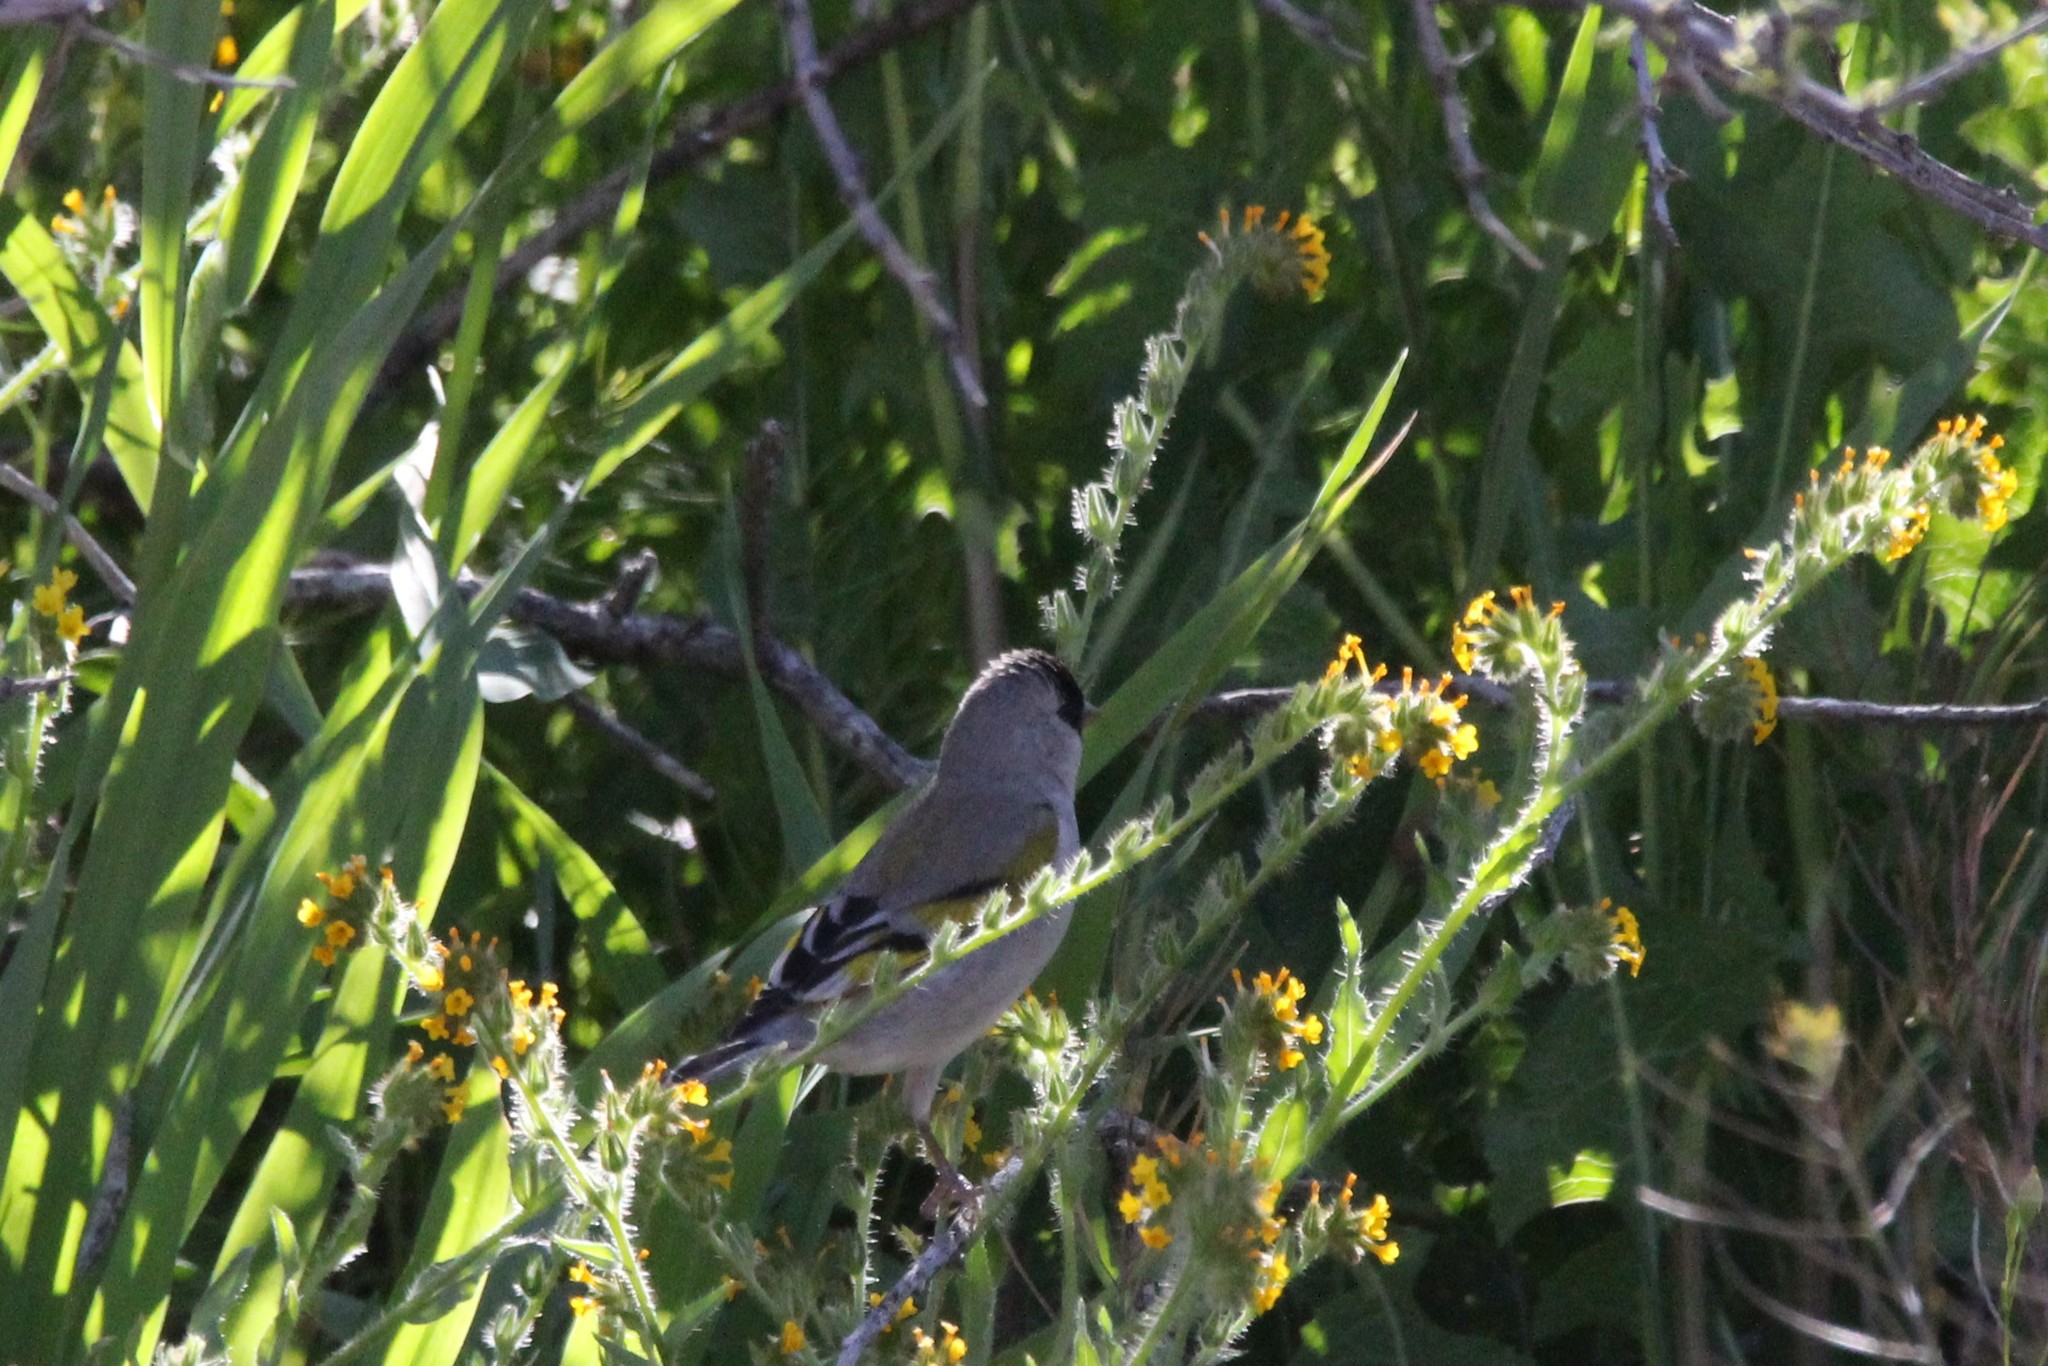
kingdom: Animalia
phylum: Chordata
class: Aves
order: Passeriformes
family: Fringillidae
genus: Spinus
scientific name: Spinus lawrencei
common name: Lawrence's goldfinch
